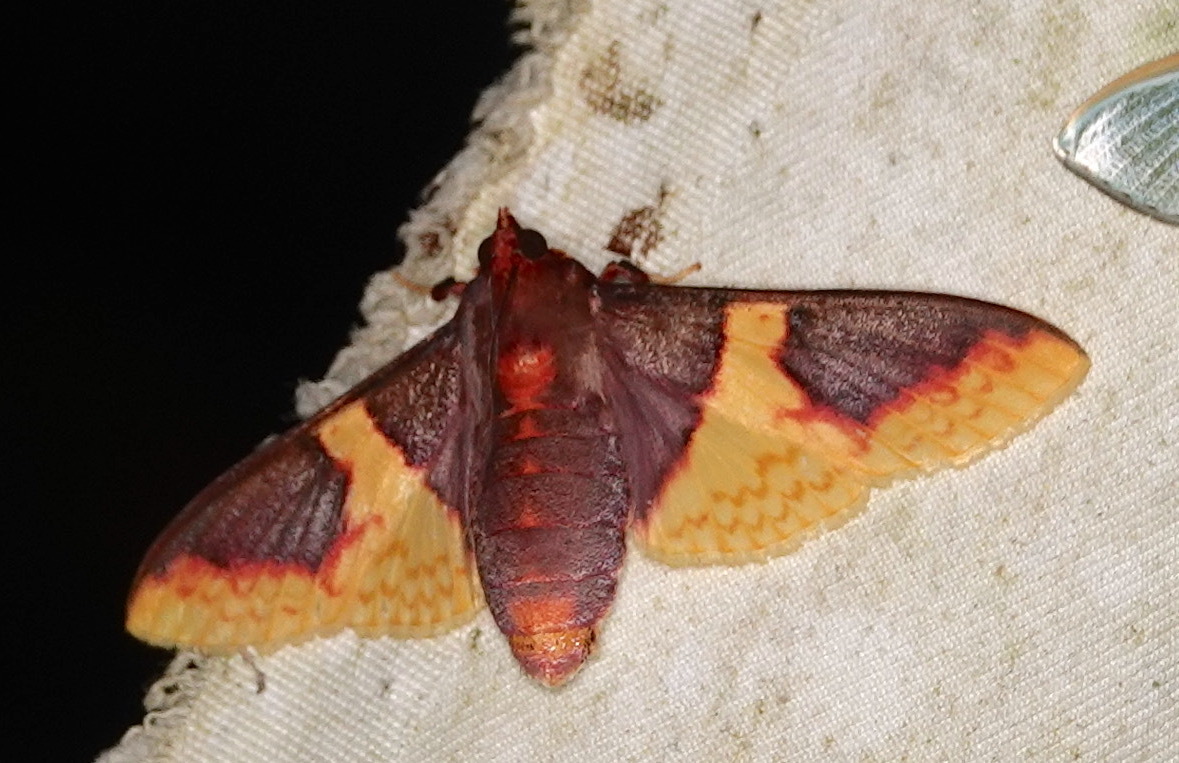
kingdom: Animalia
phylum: Arthropoda
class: Insecta
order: Lepidoptera
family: Crambidae
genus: Pachynoa
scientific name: Pachynoa purpuralis
